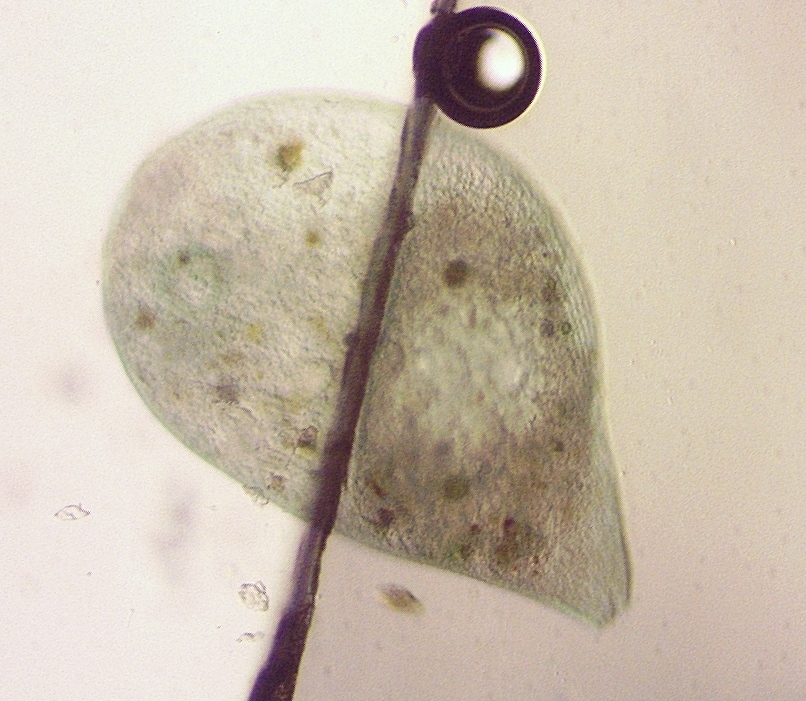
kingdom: Chromista
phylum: Ciliophora
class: Heterotrichea
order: Heterotrichida
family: Stentoridae
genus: Stentor
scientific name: Stentor coeruleus
